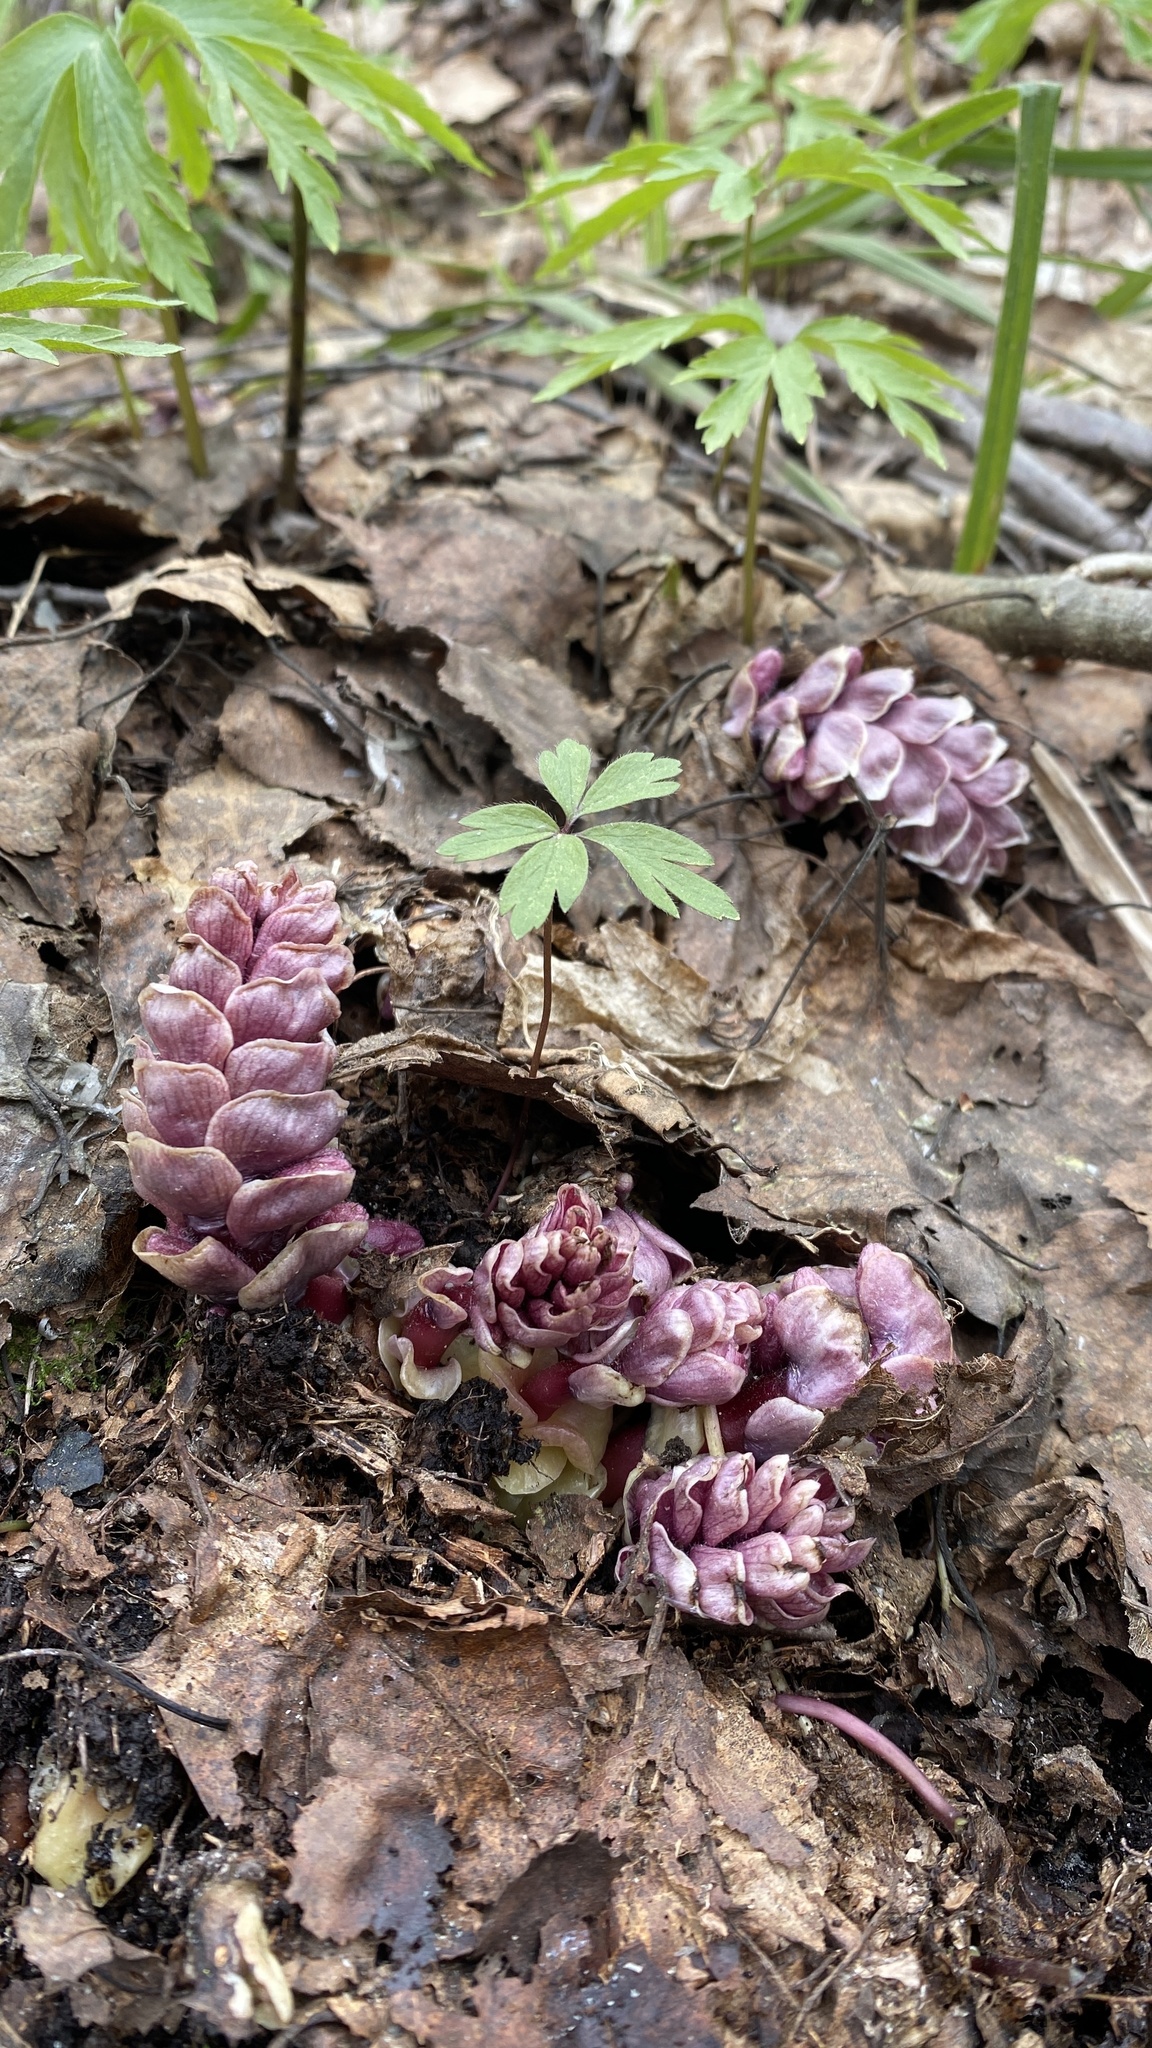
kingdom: Plantae
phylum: Tracheophyta
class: Magnoliopsida
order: Lamiales
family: Orobanchaceae
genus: Lathraea
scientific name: Lathraea squamaria
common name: Toothwort
